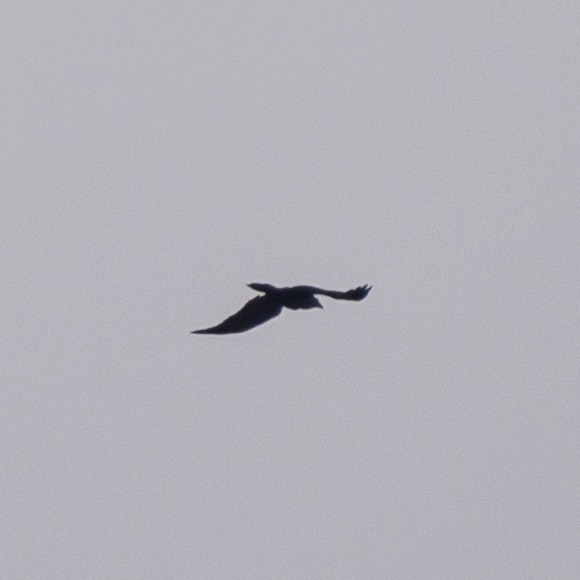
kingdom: Animalia
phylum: Chordata
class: Aves
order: Passeriformes
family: Corvidae
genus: Corvus
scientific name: Corvus corax
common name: Common raven
